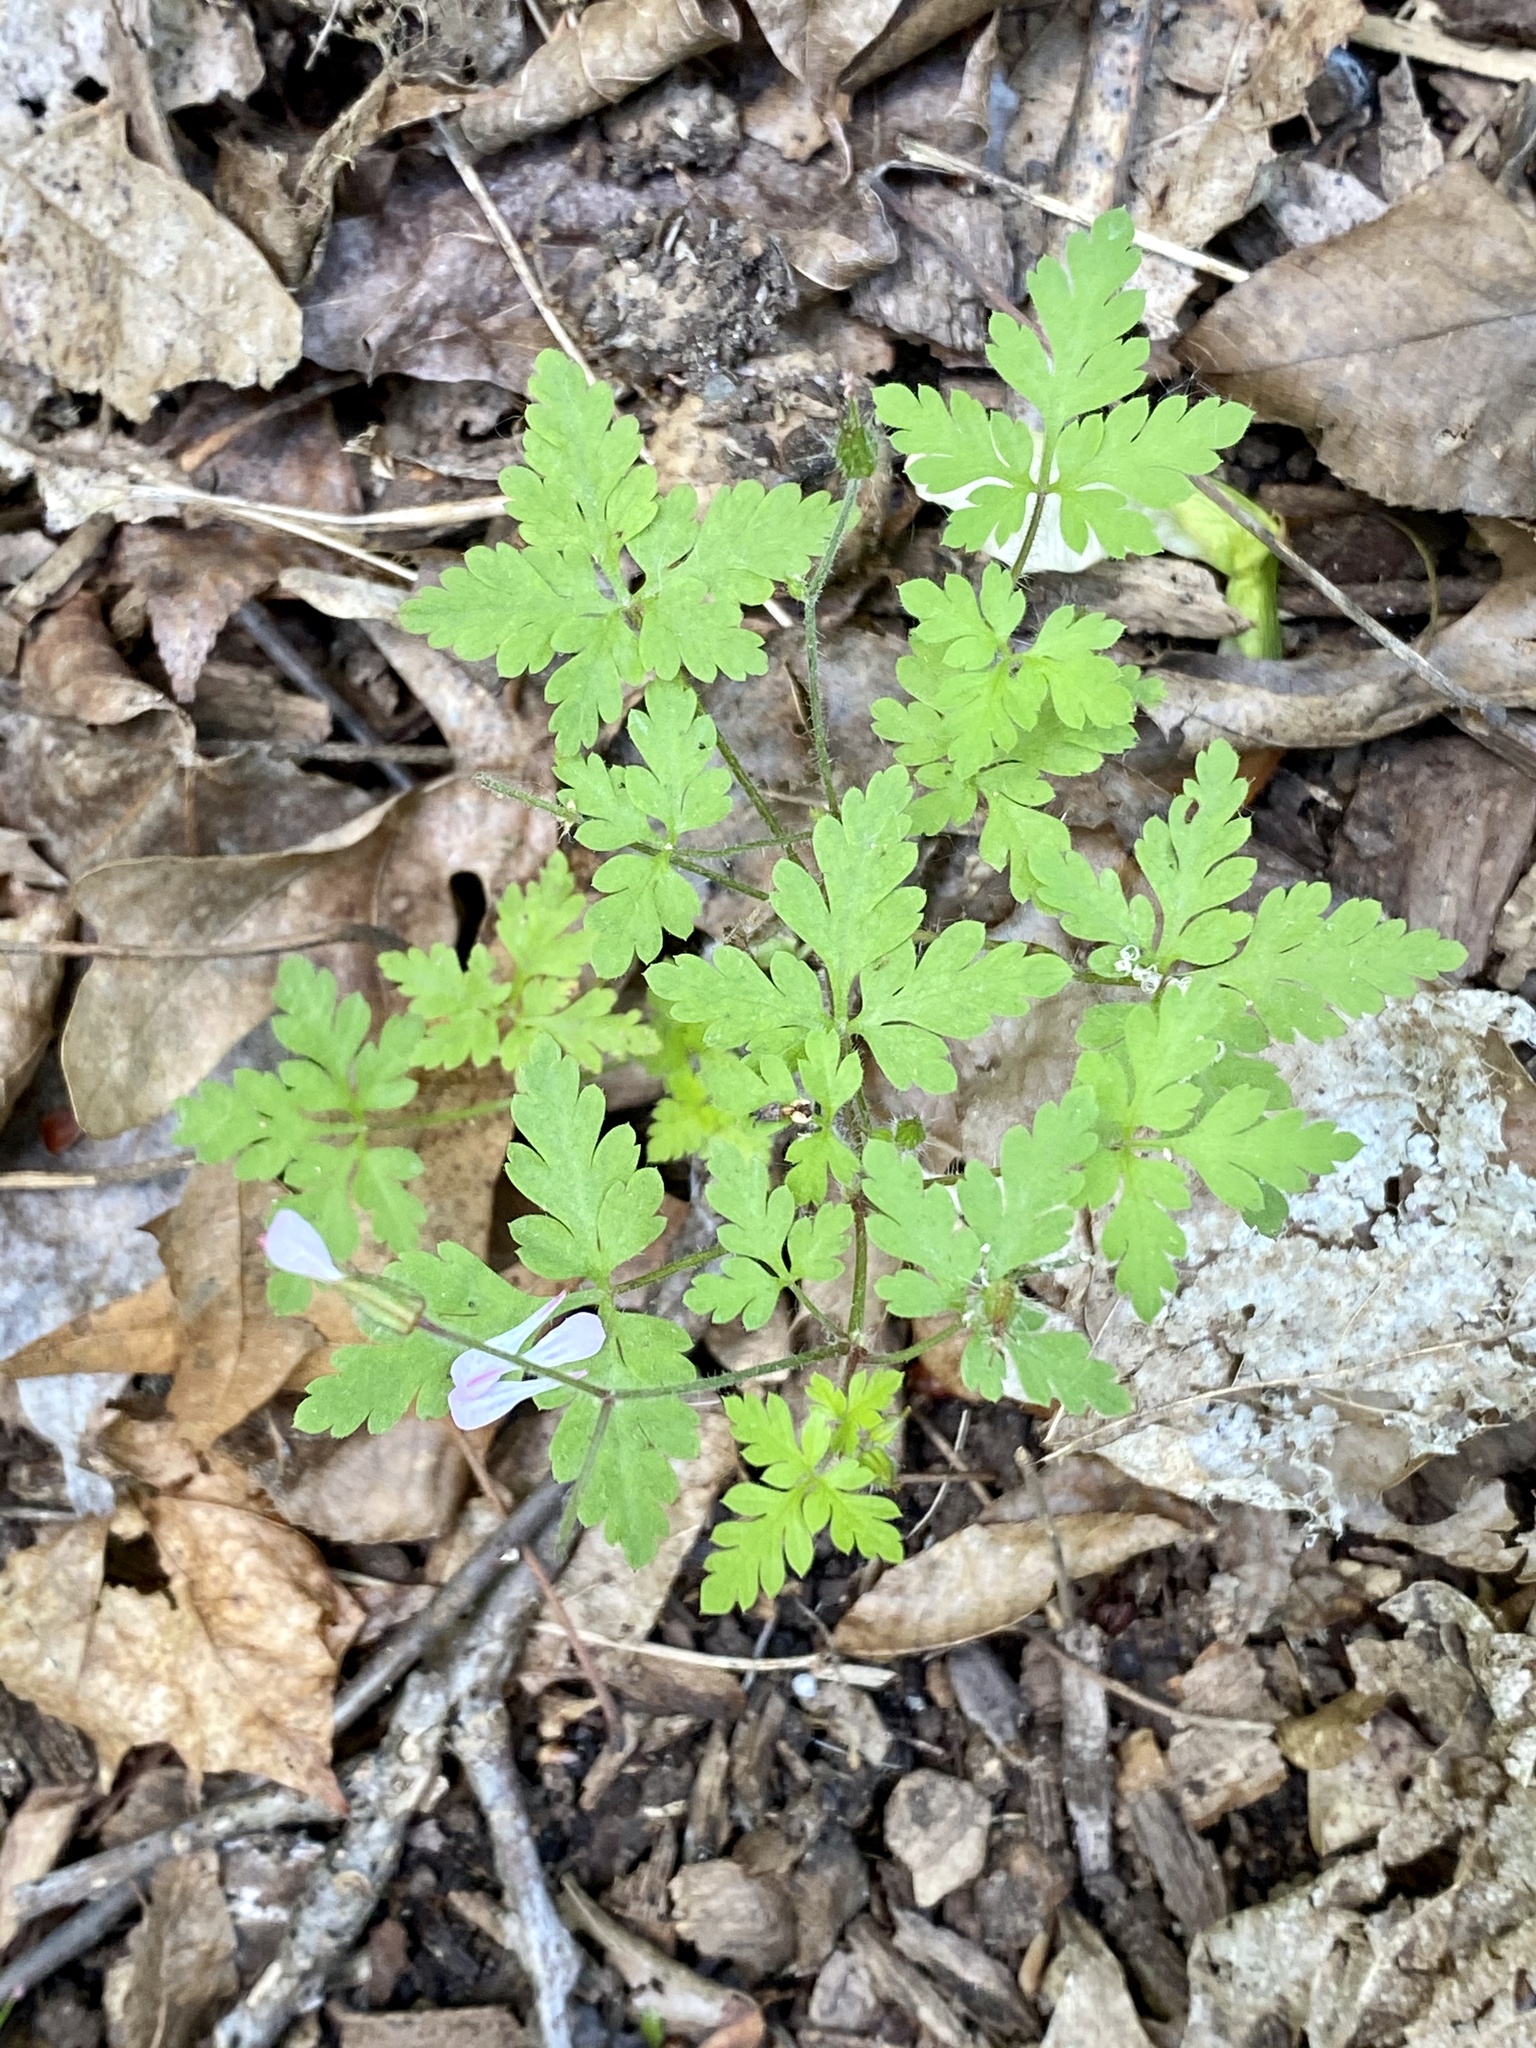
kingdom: Plantae
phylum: Tracheophyta
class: Magnoliopsida
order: Geraniales
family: Geraniaceae
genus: Geranium
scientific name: Geranium robertianum
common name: Herb-robert
